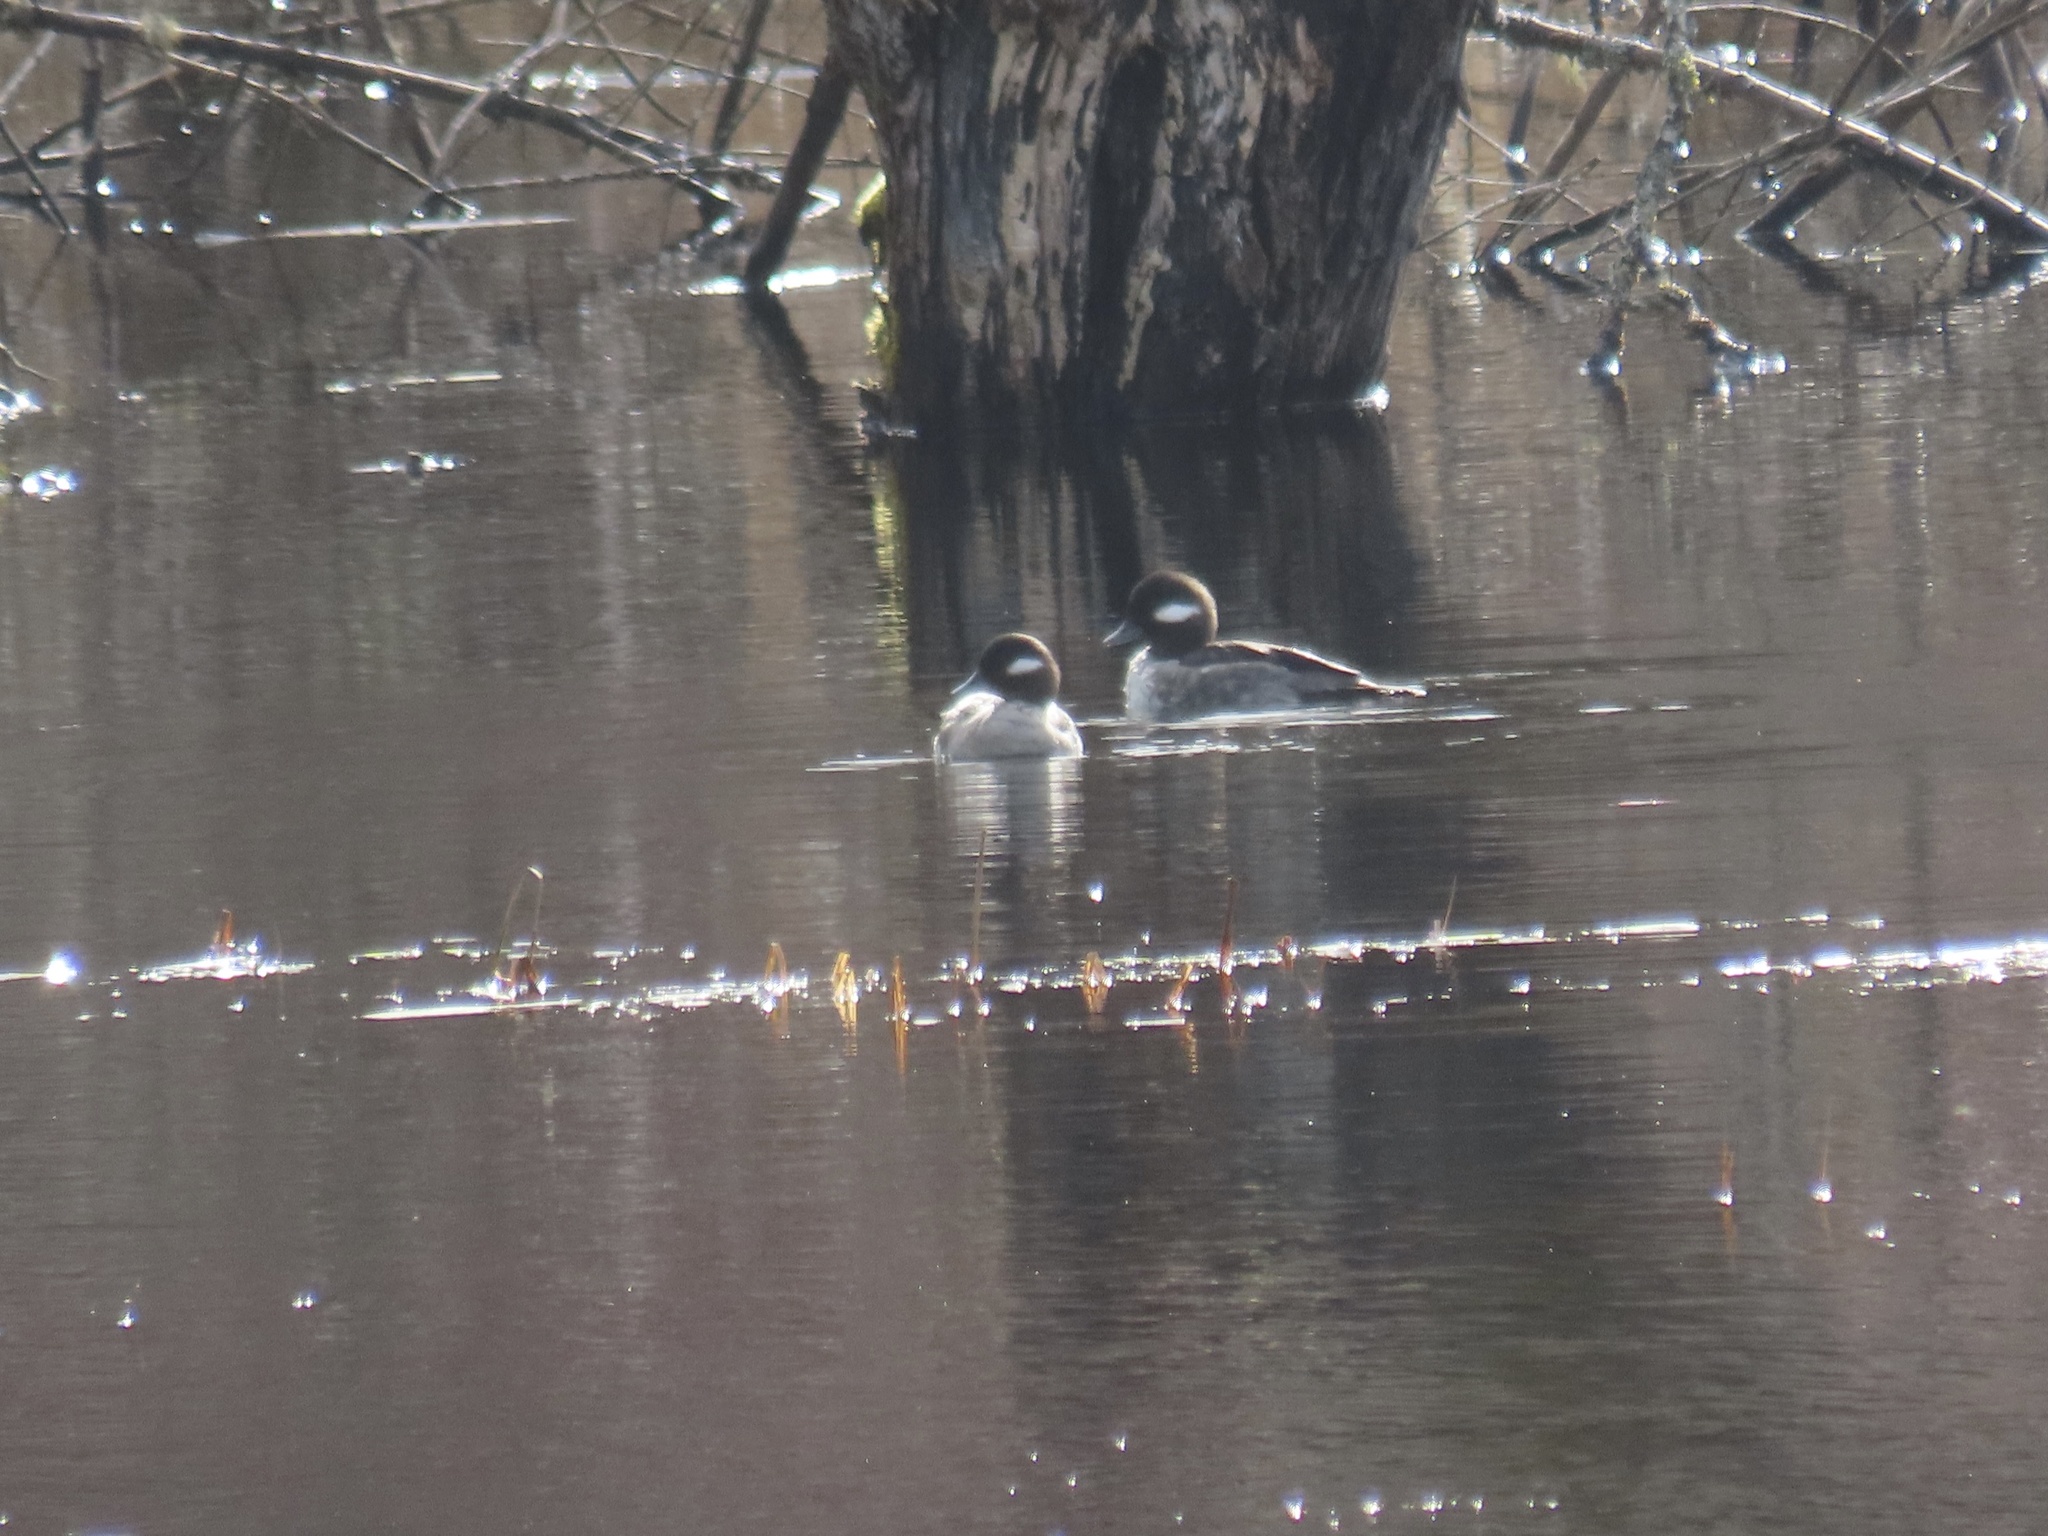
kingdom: Animalia
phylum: Chordata
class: Aves
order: Anseriformes
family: Anatidae
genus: Bucephala
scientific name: Bucephala albeola
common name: Bufflehead
